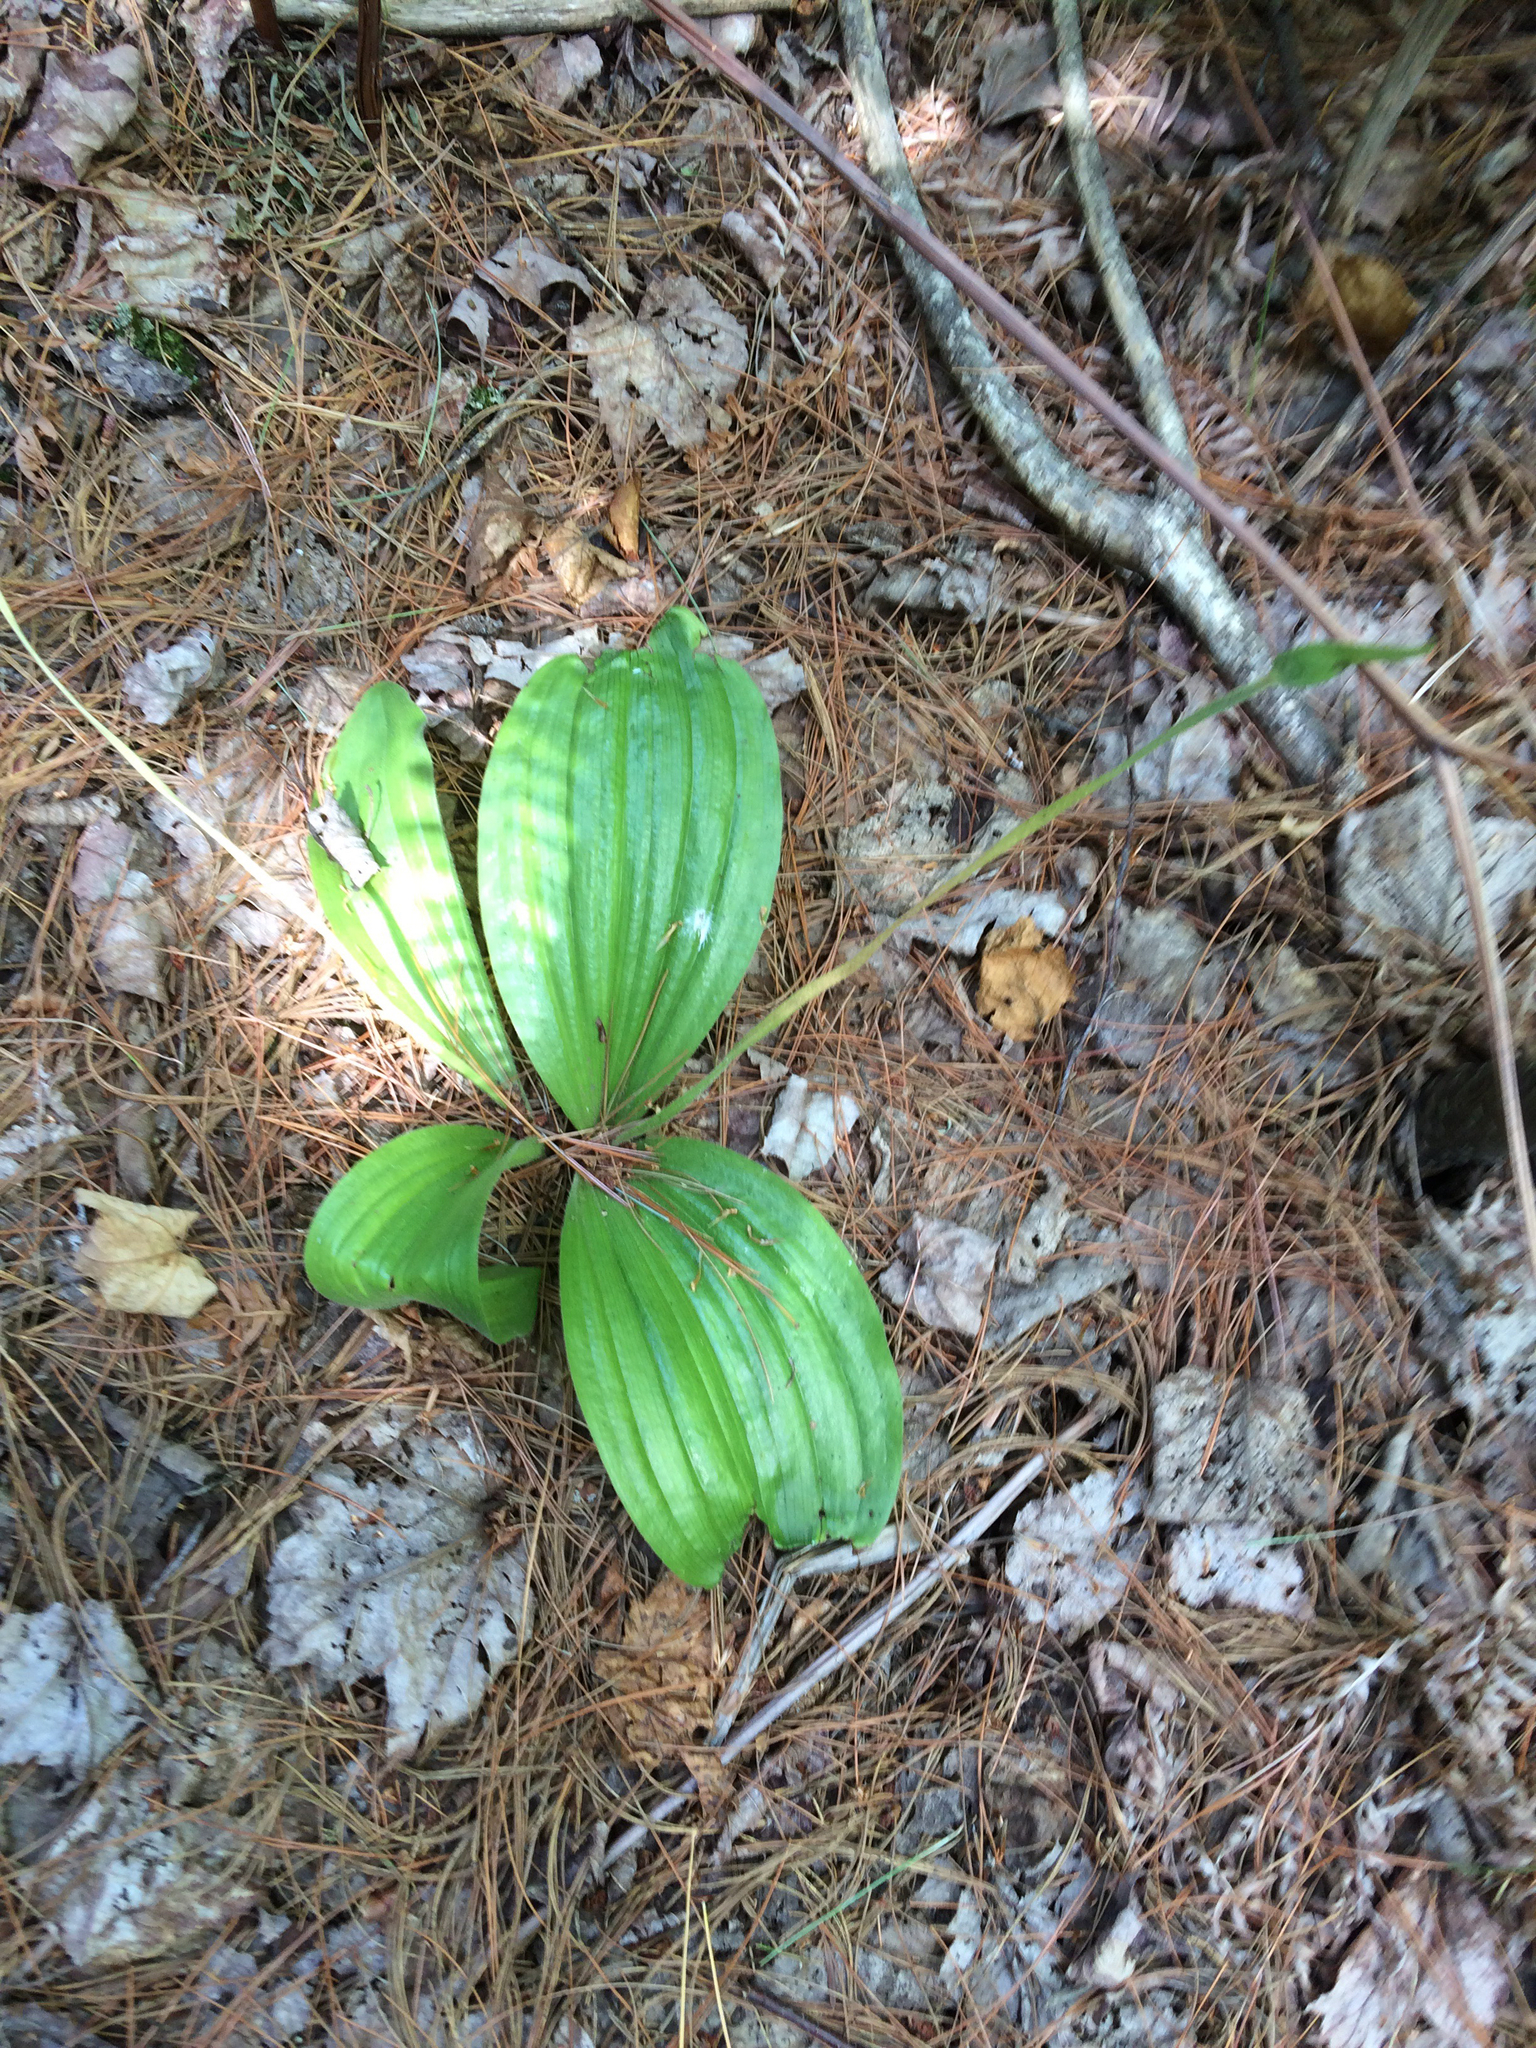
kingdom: Plantae
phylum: Tracheophyta
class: Liliopsida
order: Asparagales
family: Orchidaceae
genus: Cypripedium
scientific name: Cypripedium acaule
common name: Pink lady's-slipper
